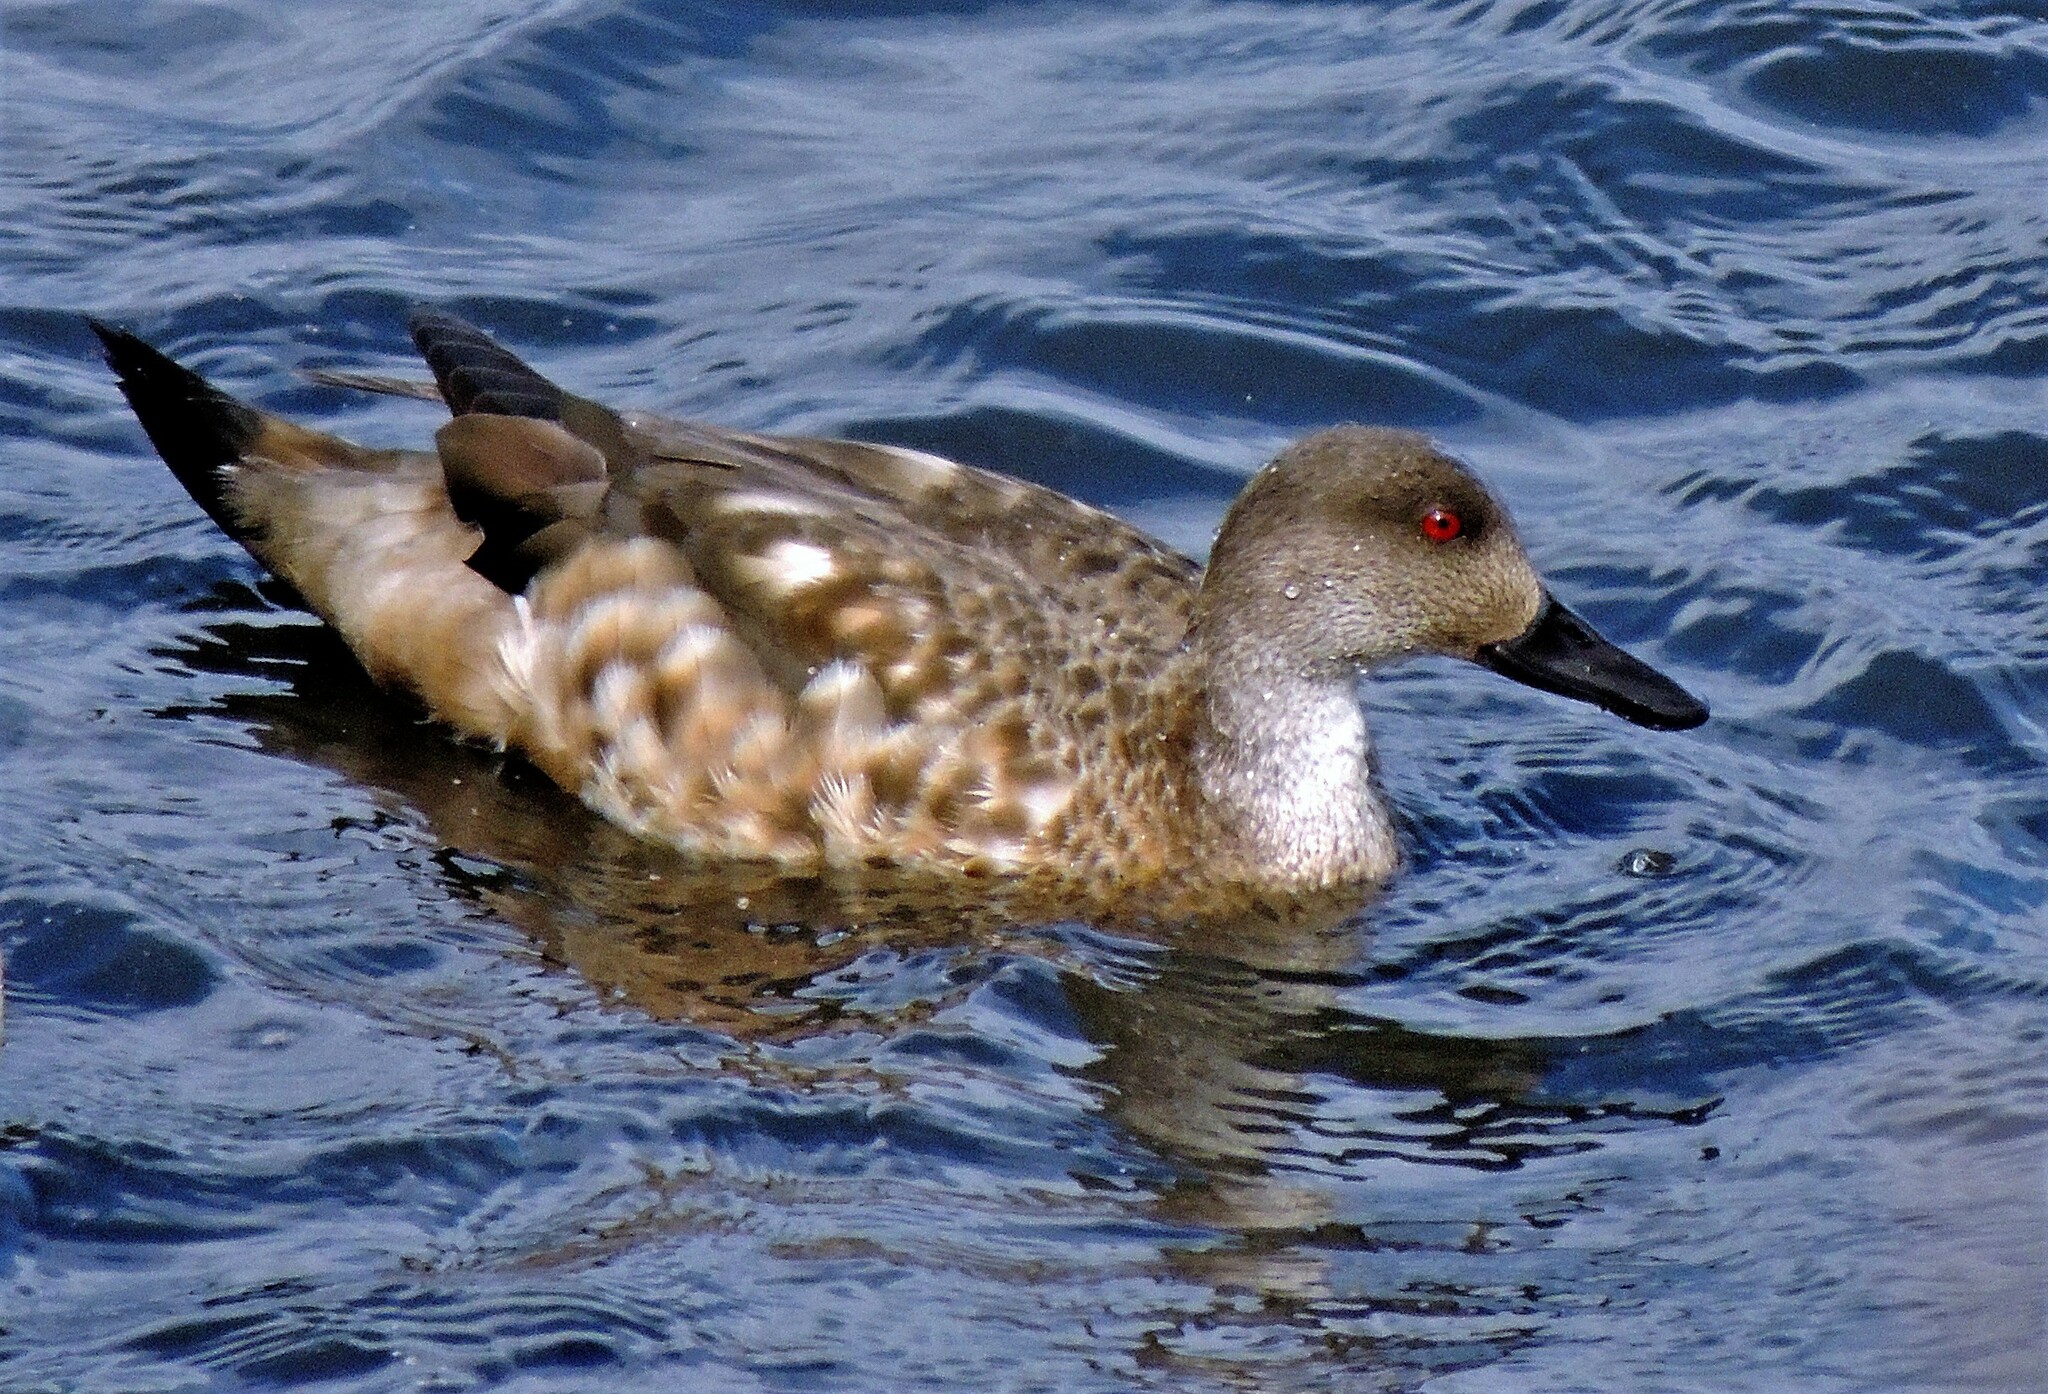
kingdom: Animalia
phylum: Chordata
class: Aves
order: Anseriformes
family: Anatidae
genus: Lophonetta
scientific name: Lophonetta specularioides
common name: Crested duck
